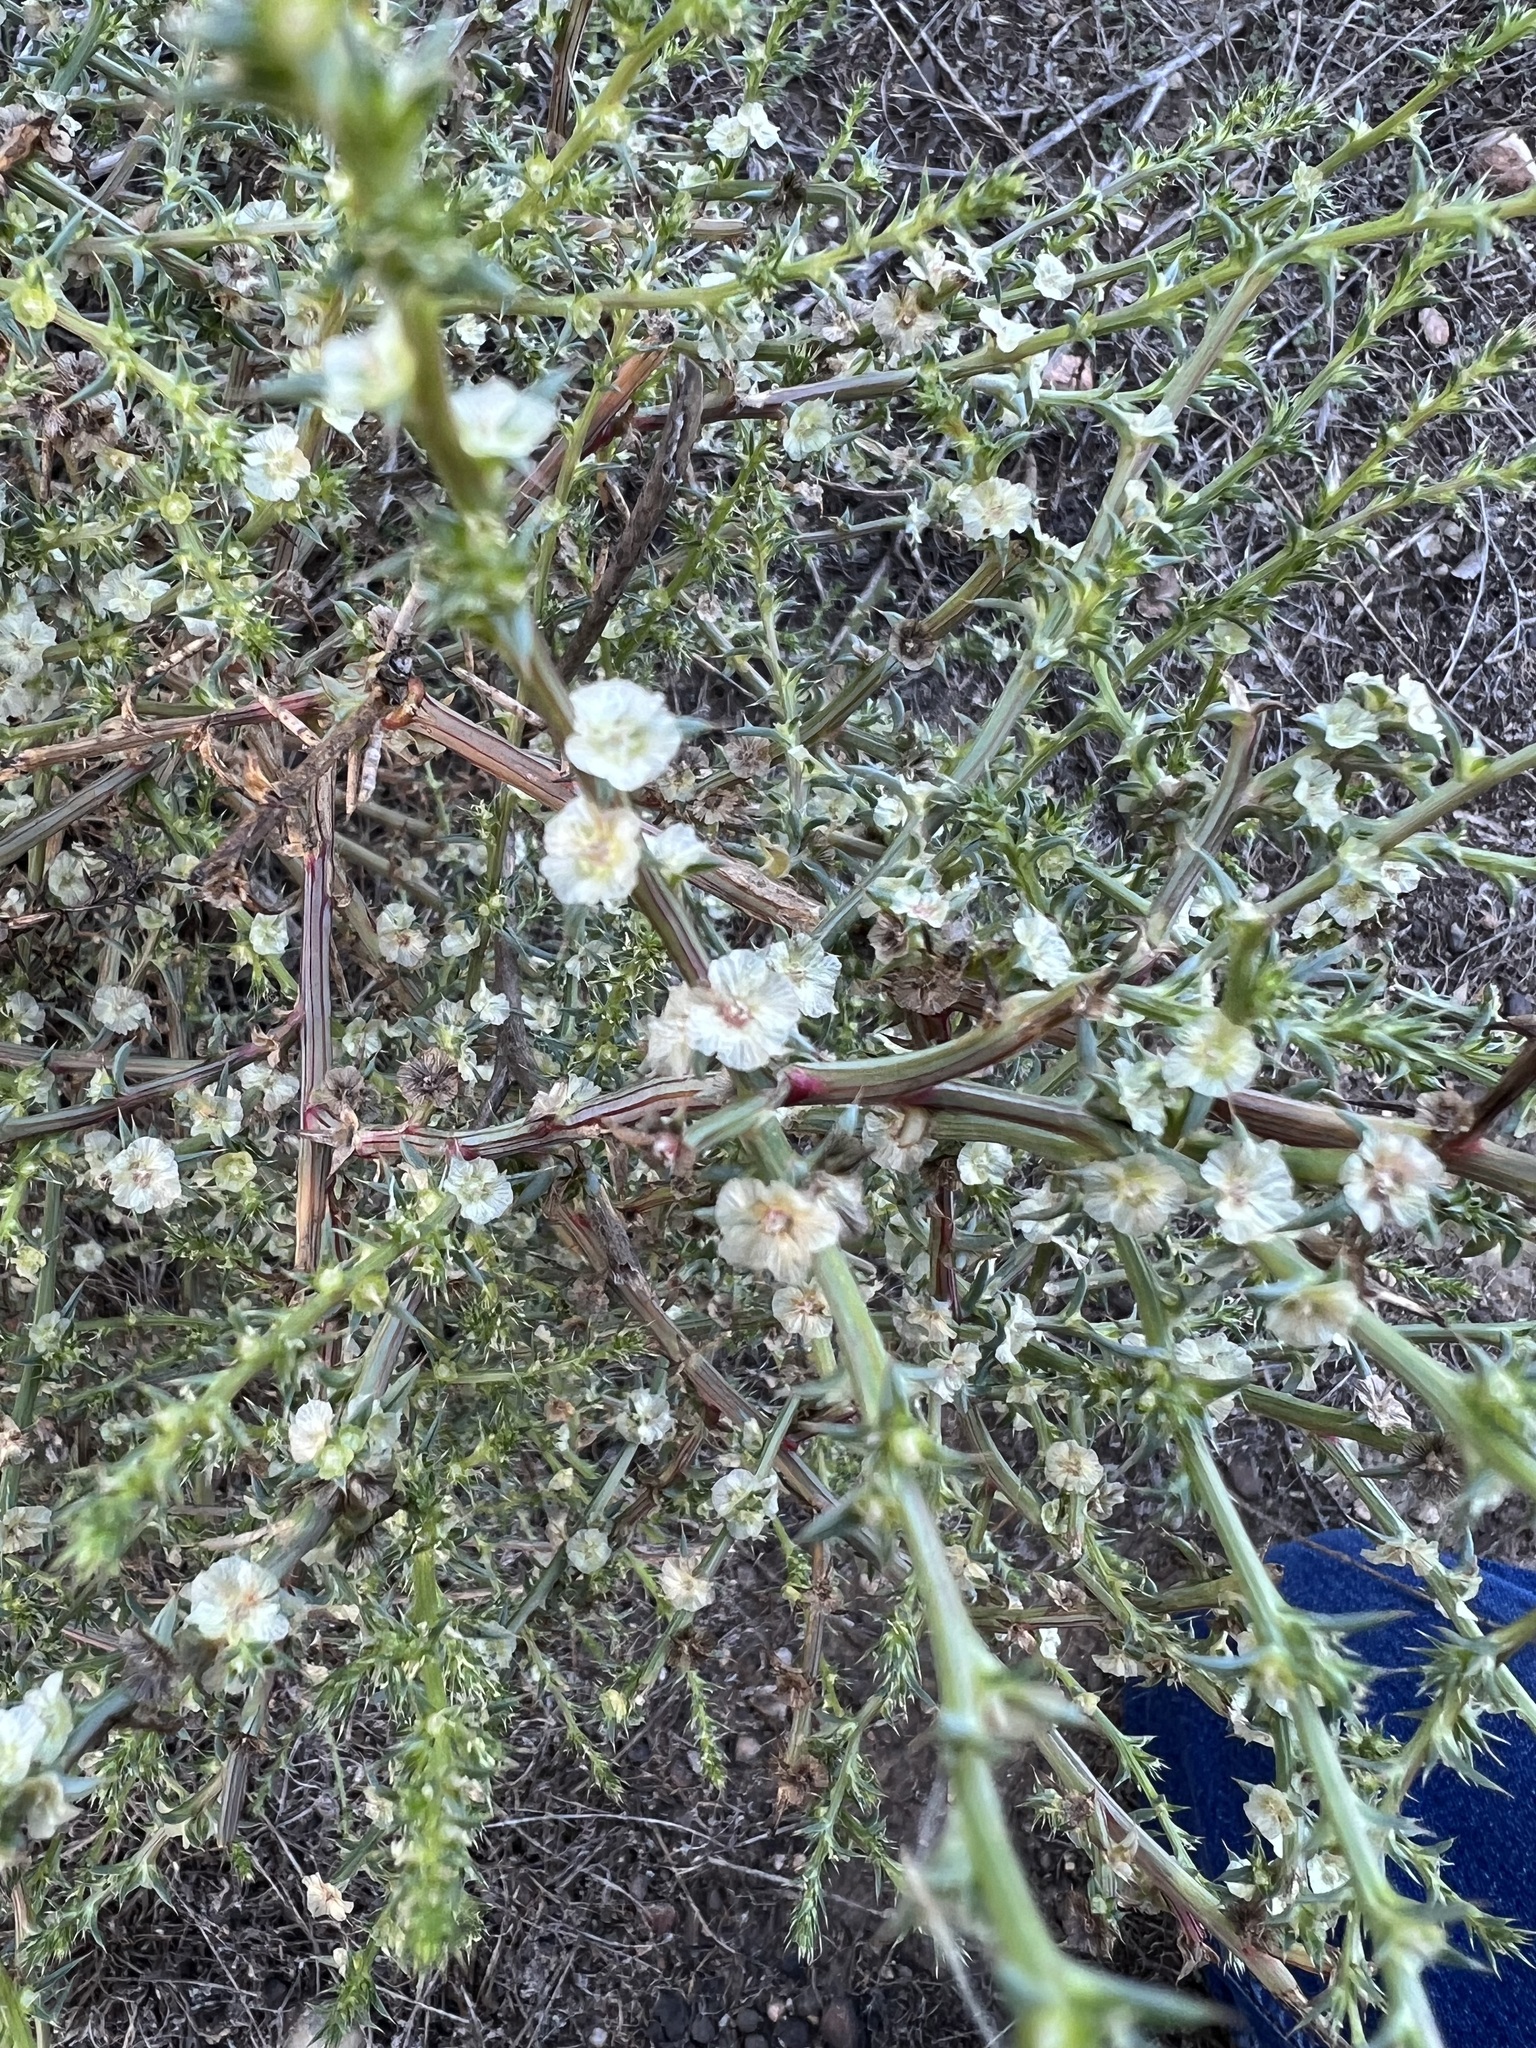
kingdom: Plantae
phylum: Tracheophyta
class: Magnoliopsida
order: Caryophyllales
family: Amaranthaceae
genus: Salsola
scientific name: Salsola australis
